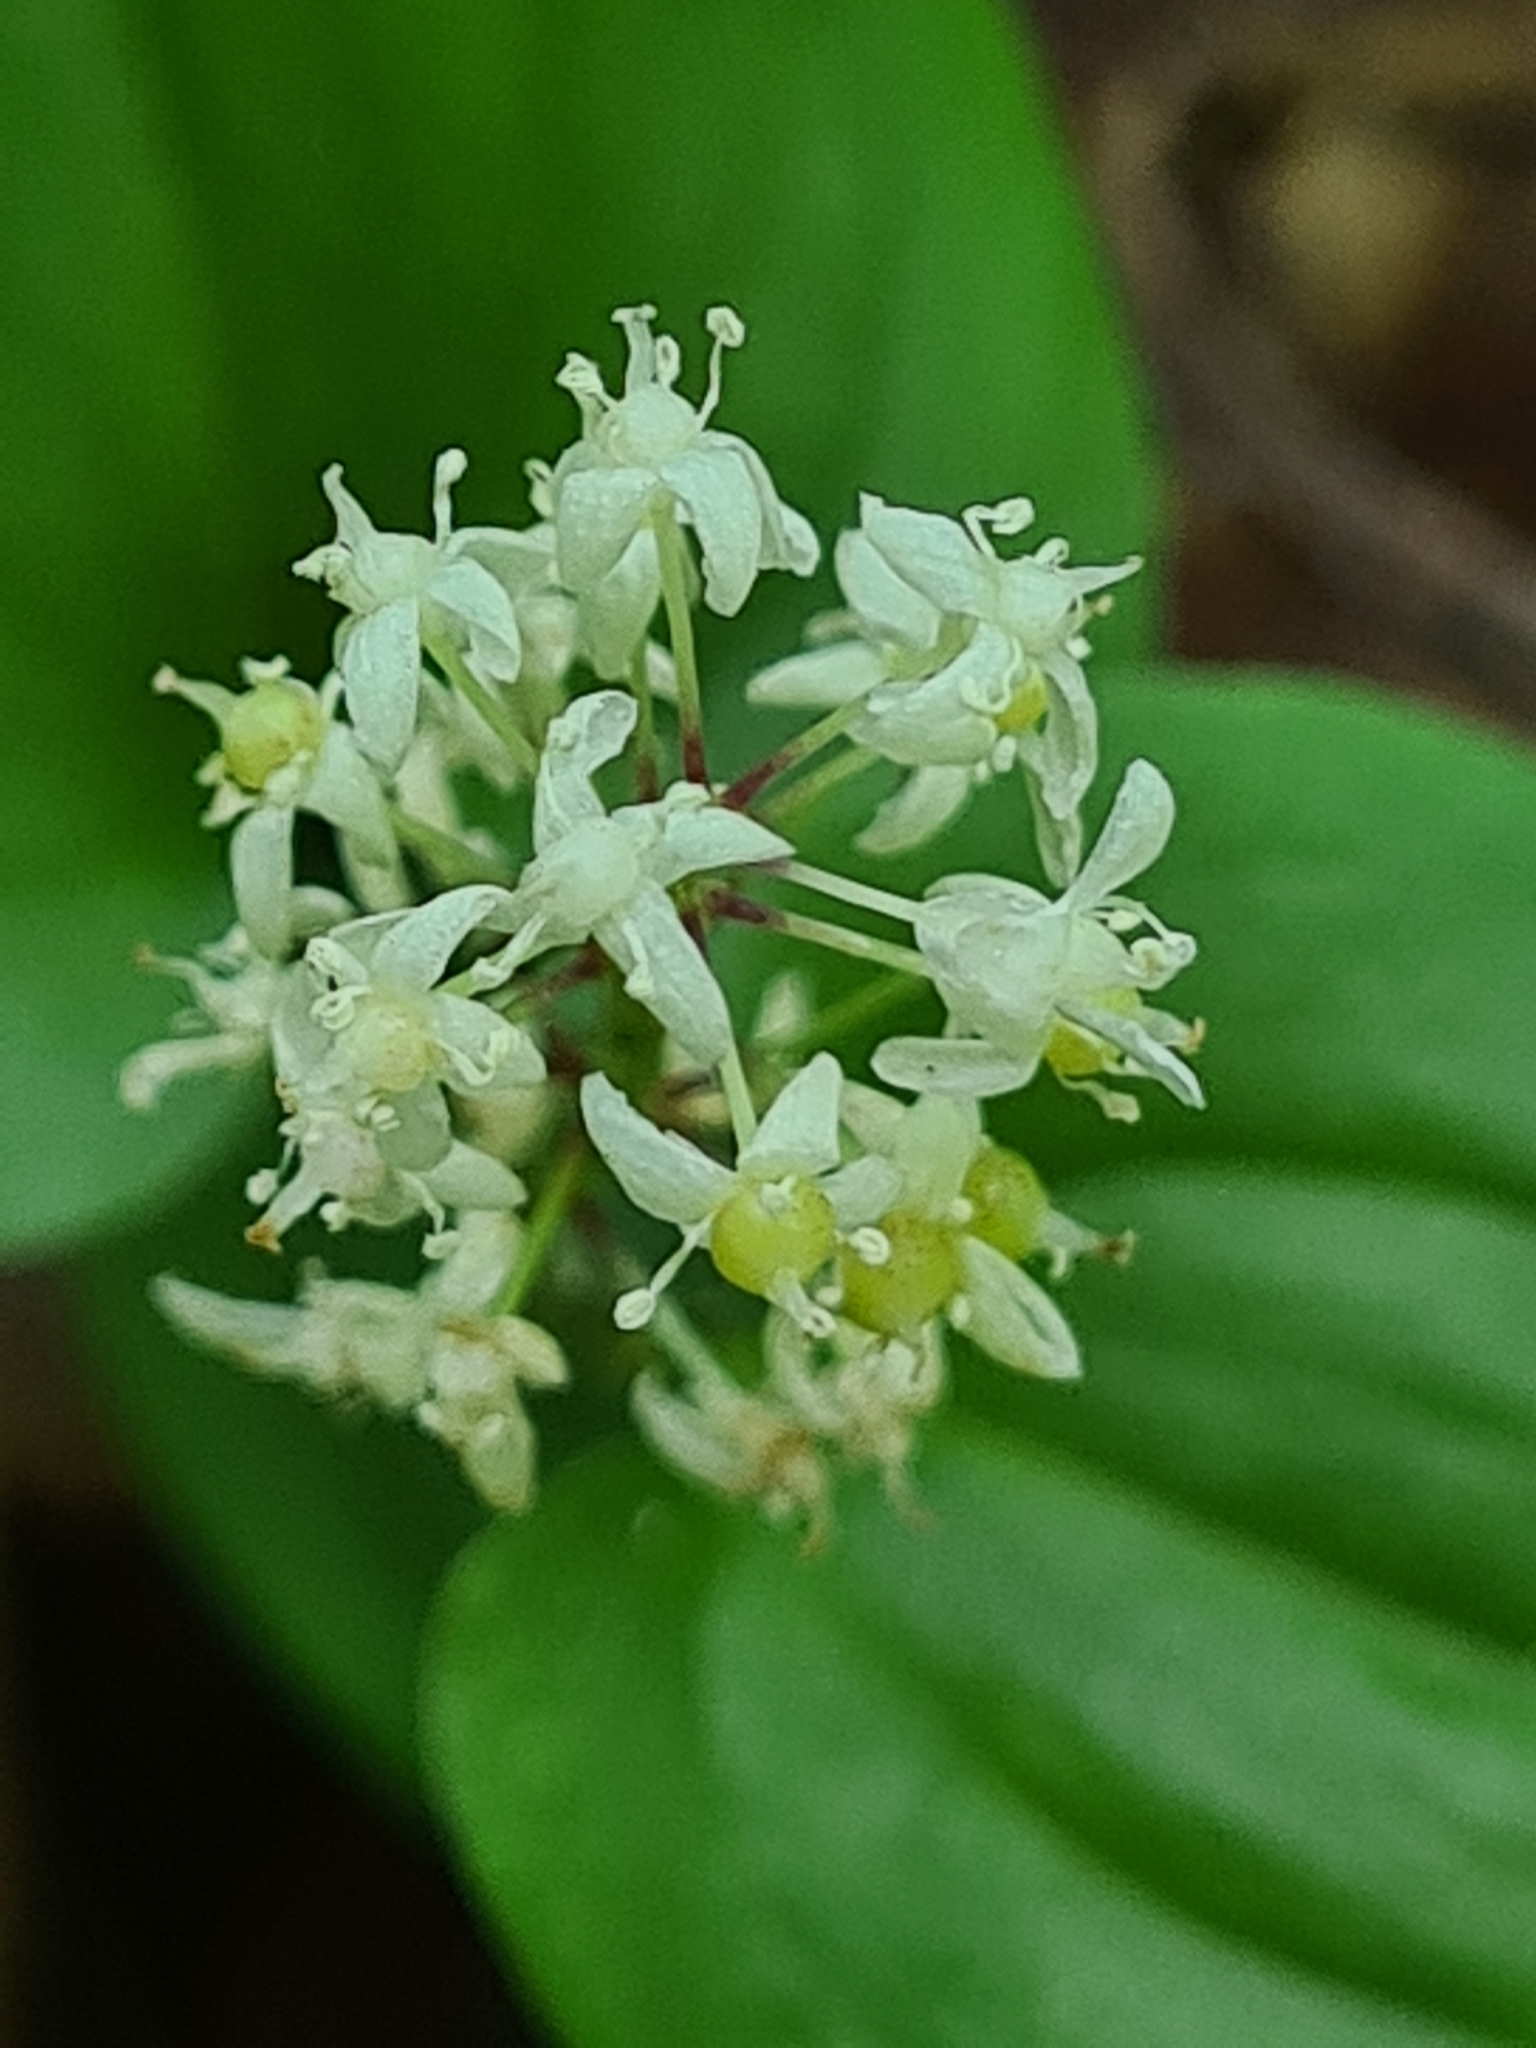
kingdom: Plantae
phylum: Tracheophyta
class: Liliopsida
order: Asparagales
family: Asparagaceae
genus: Maianthemum
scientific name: Maianthemum bifolium
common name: May lily
